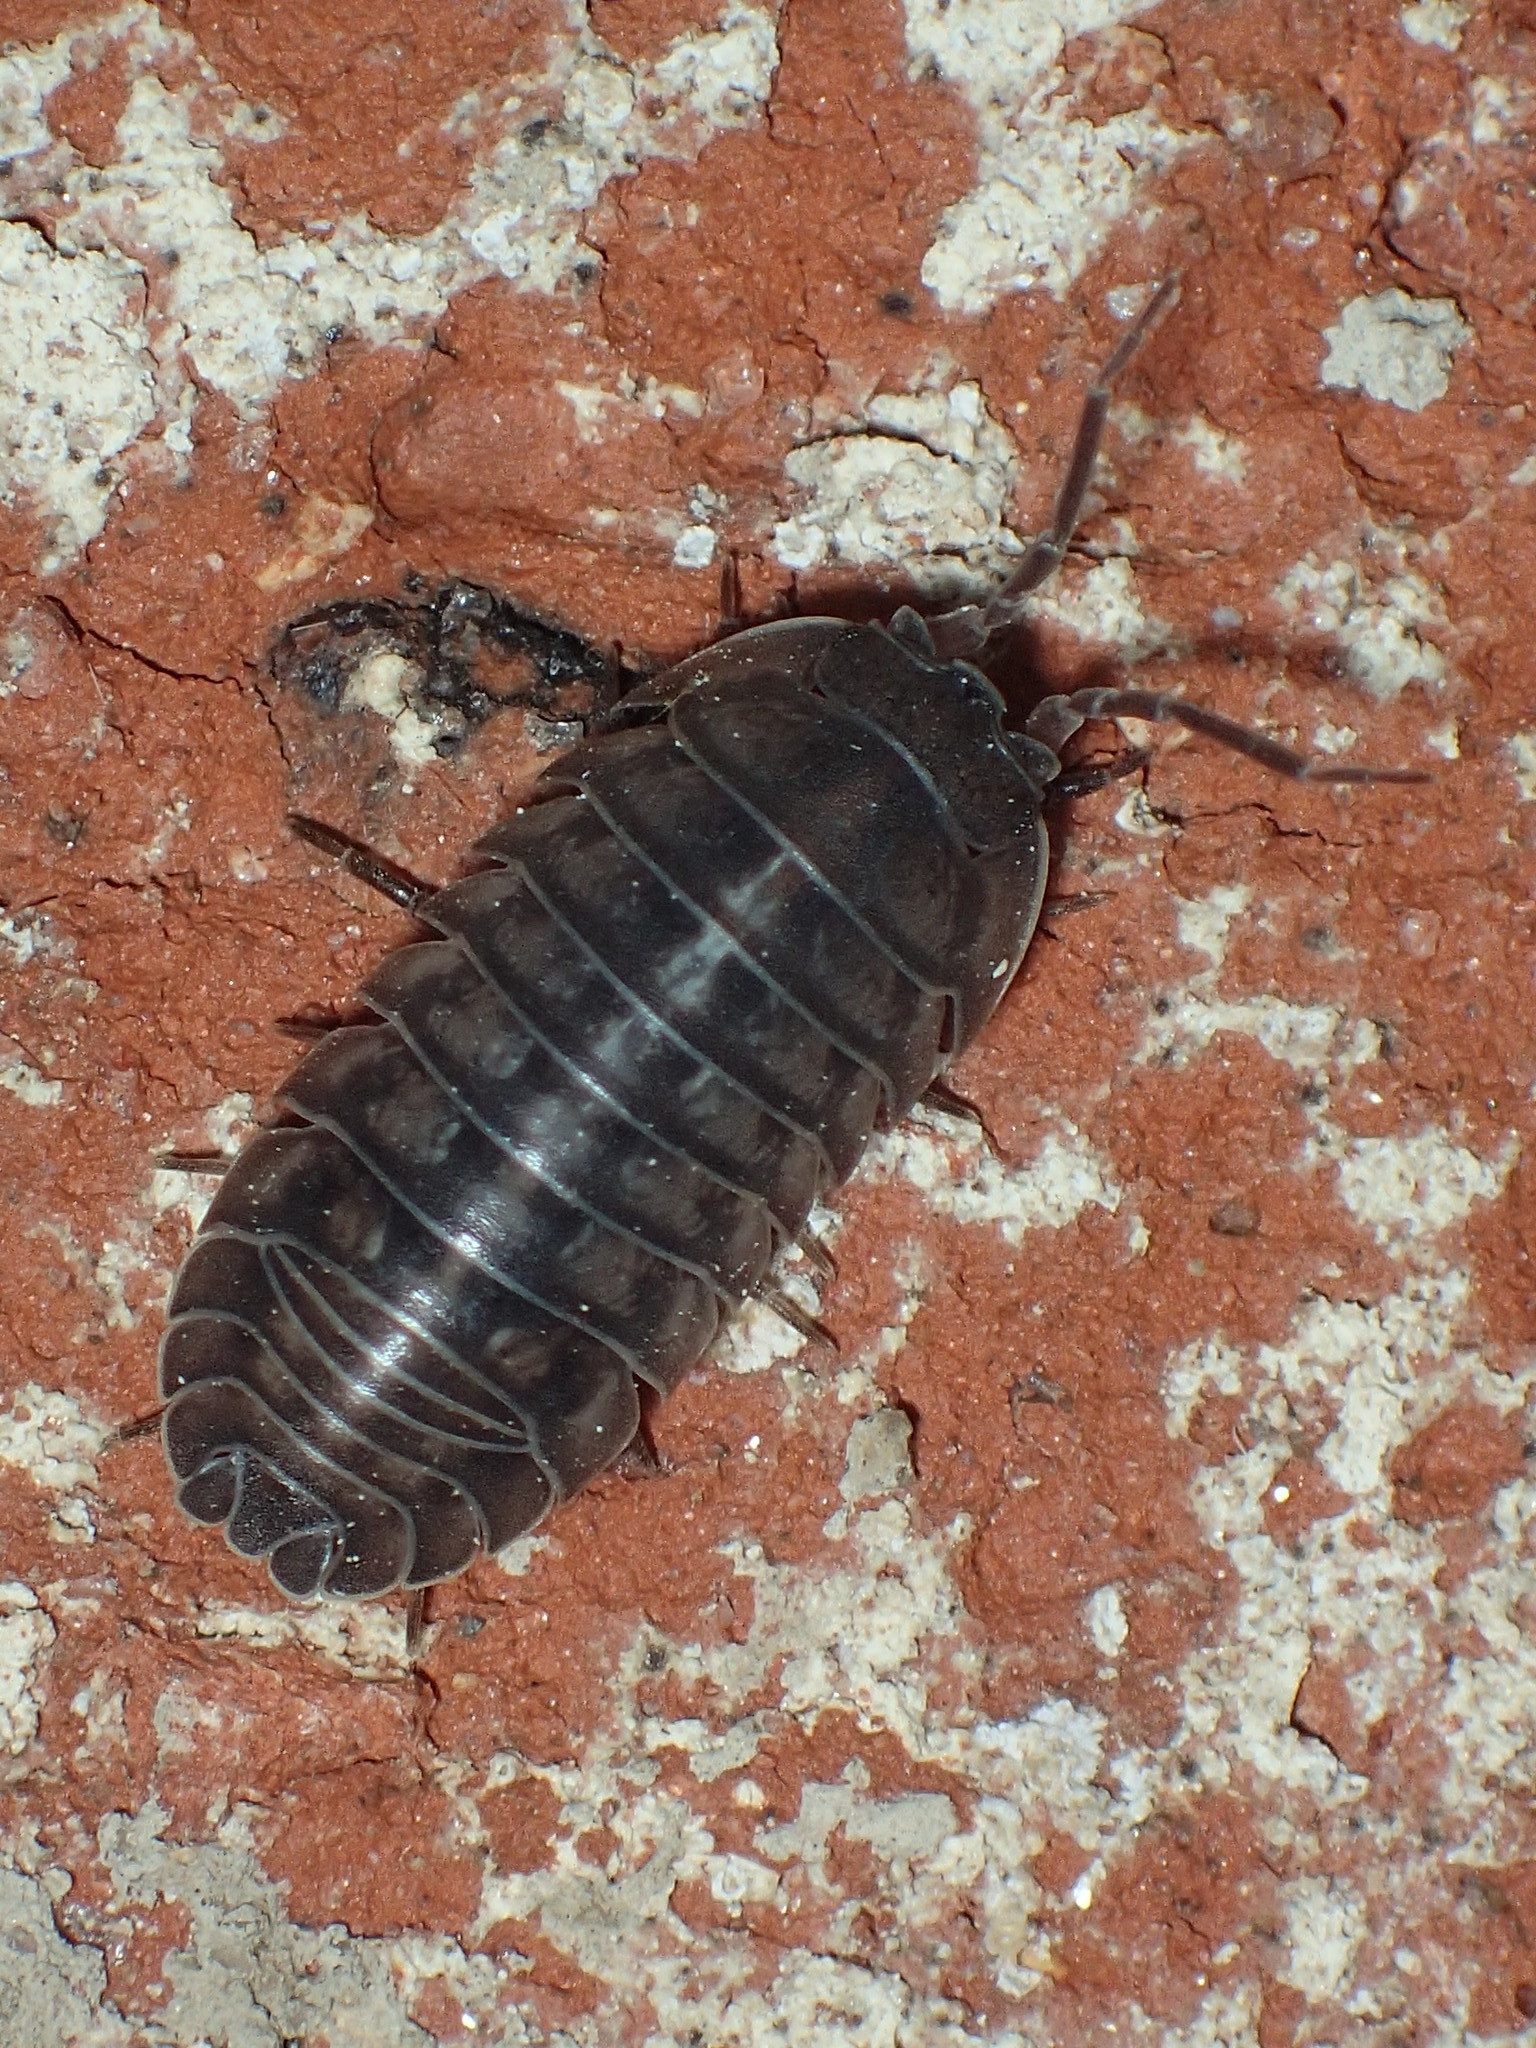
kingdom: Animalia
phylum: Arthropoda
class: Malacostraca
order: Isopoda
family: Armadillidiidae
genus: Armadillidium
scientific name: Armadillidium nasatum
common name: Isopod
